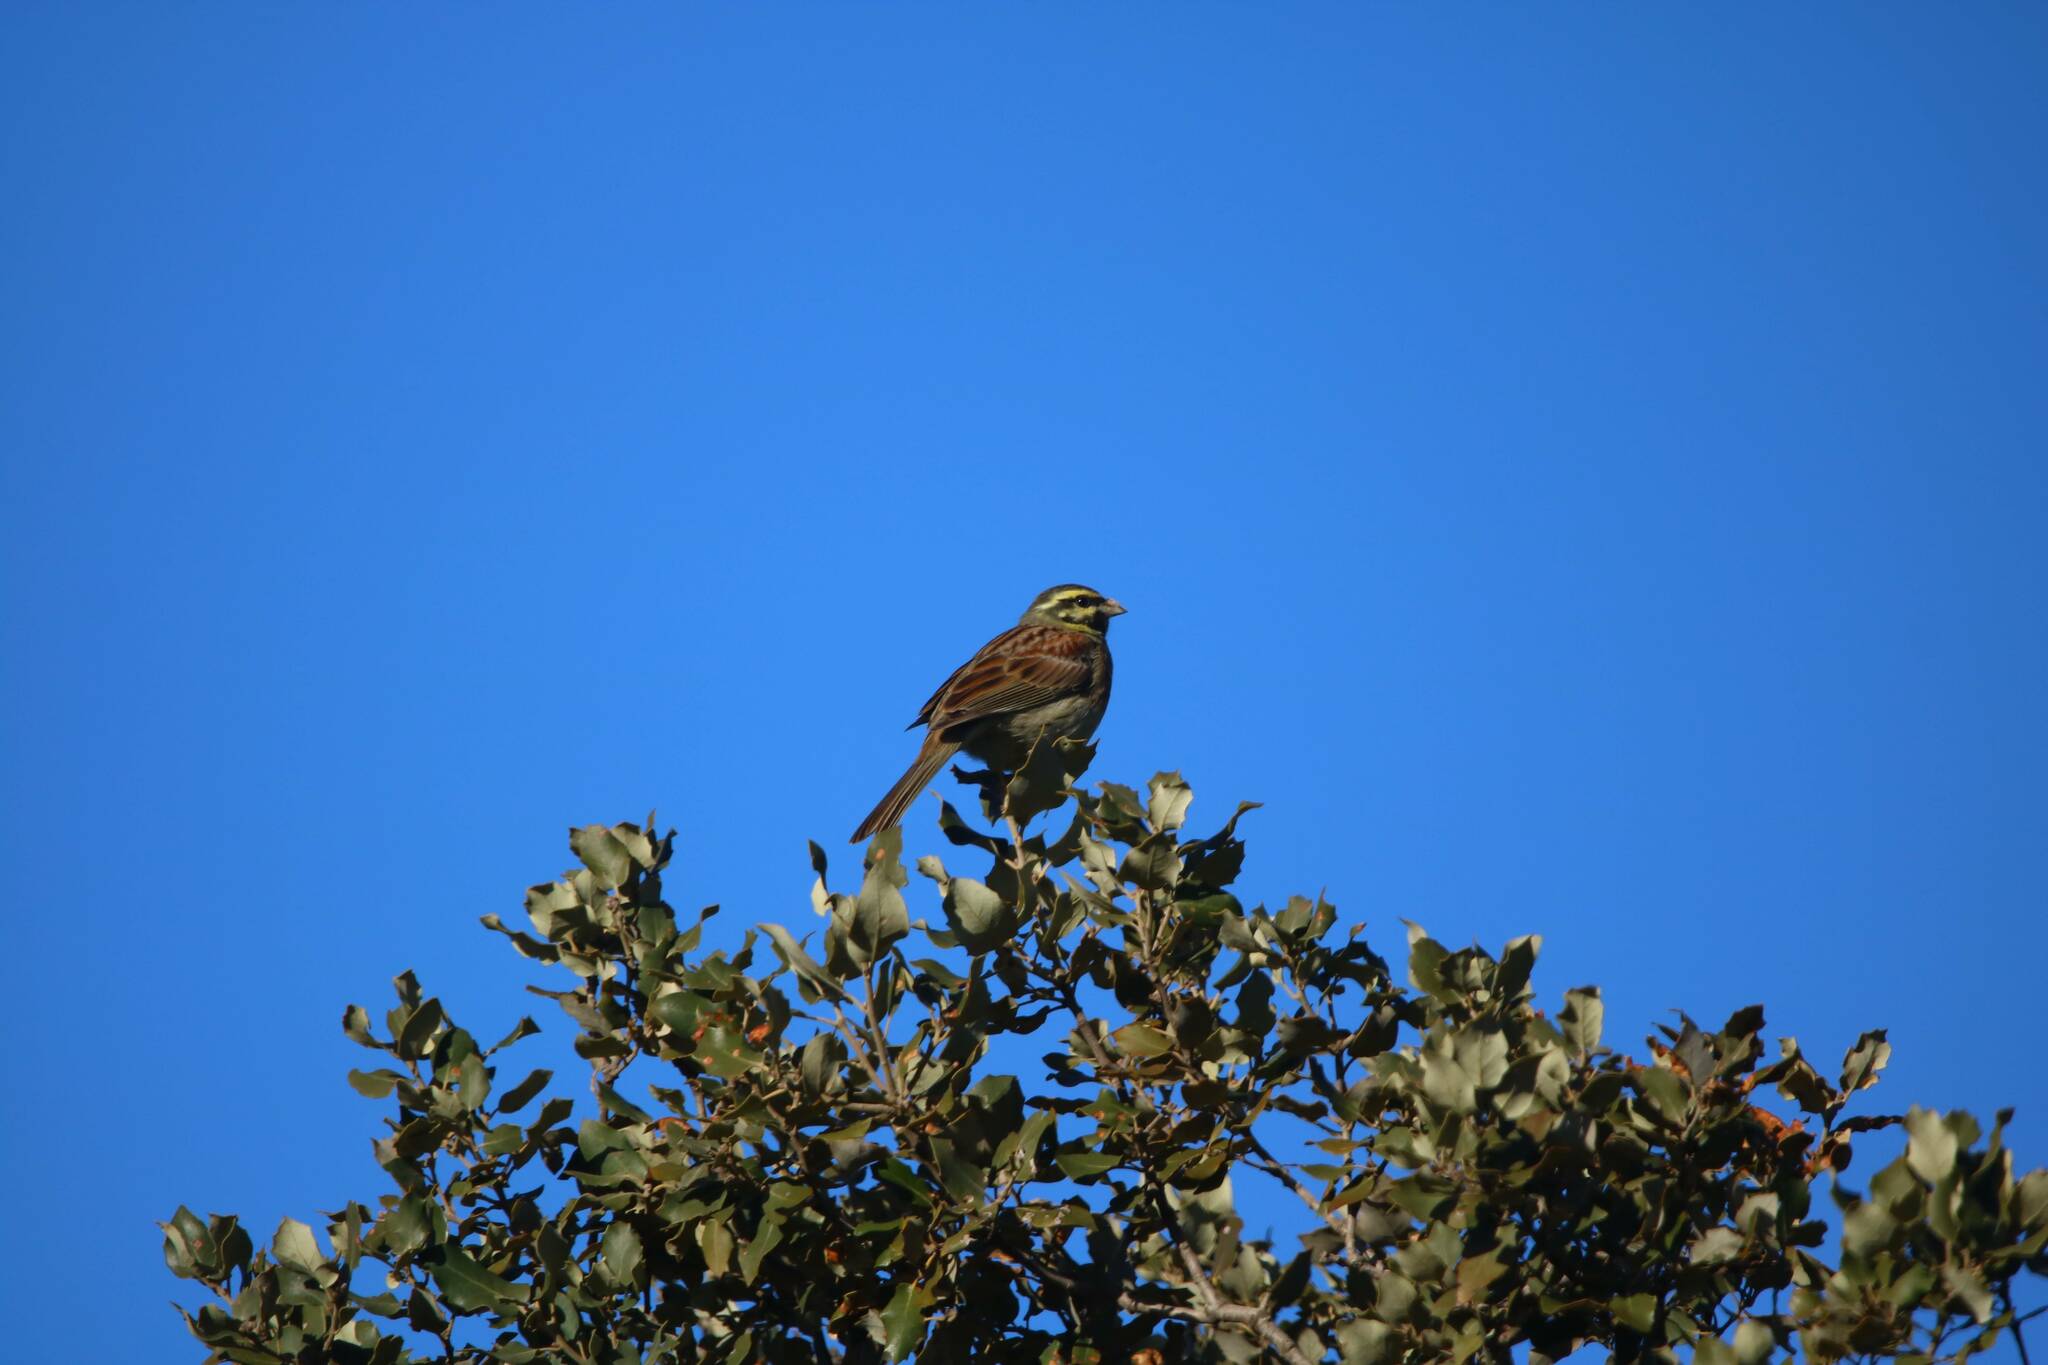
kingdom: Animalia
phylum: Chordata
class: Aves
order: Passeriformes
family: Emberizidae
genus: Emberiza
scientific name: Emberiza cirlus
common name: Cirl bunting
